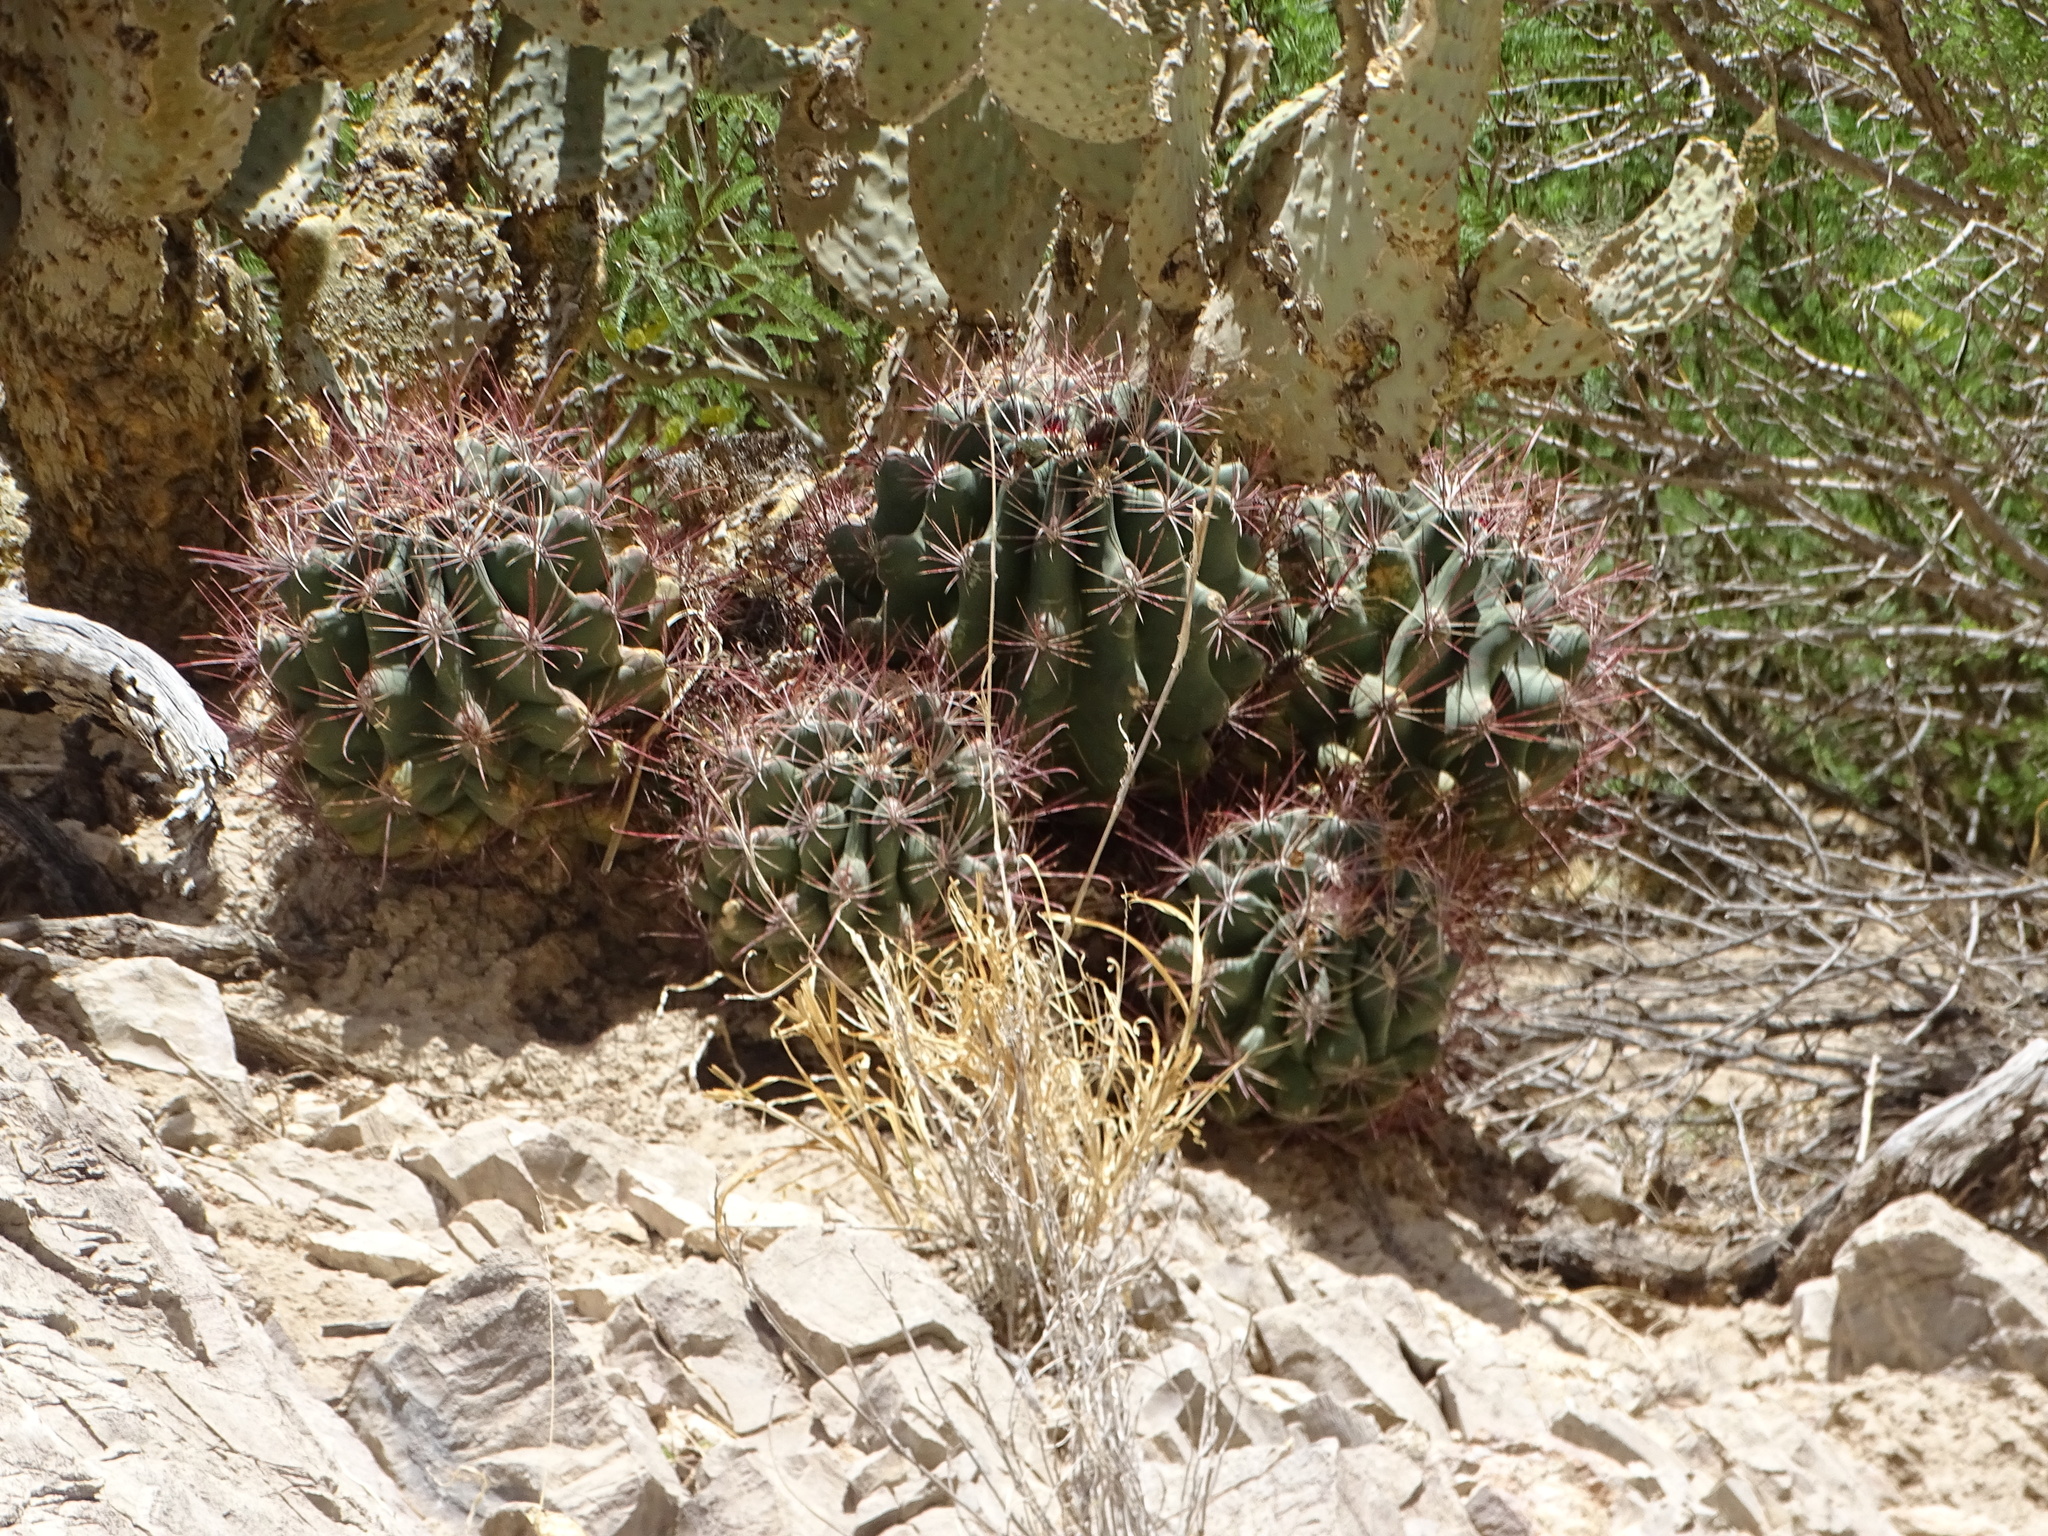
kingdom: Plantae
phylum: Tracheophyta
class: Magnoliopsida
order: Caryophyllales
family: Cactaceae
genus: Bisnaga
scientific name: Bisnaga hamatacantha
